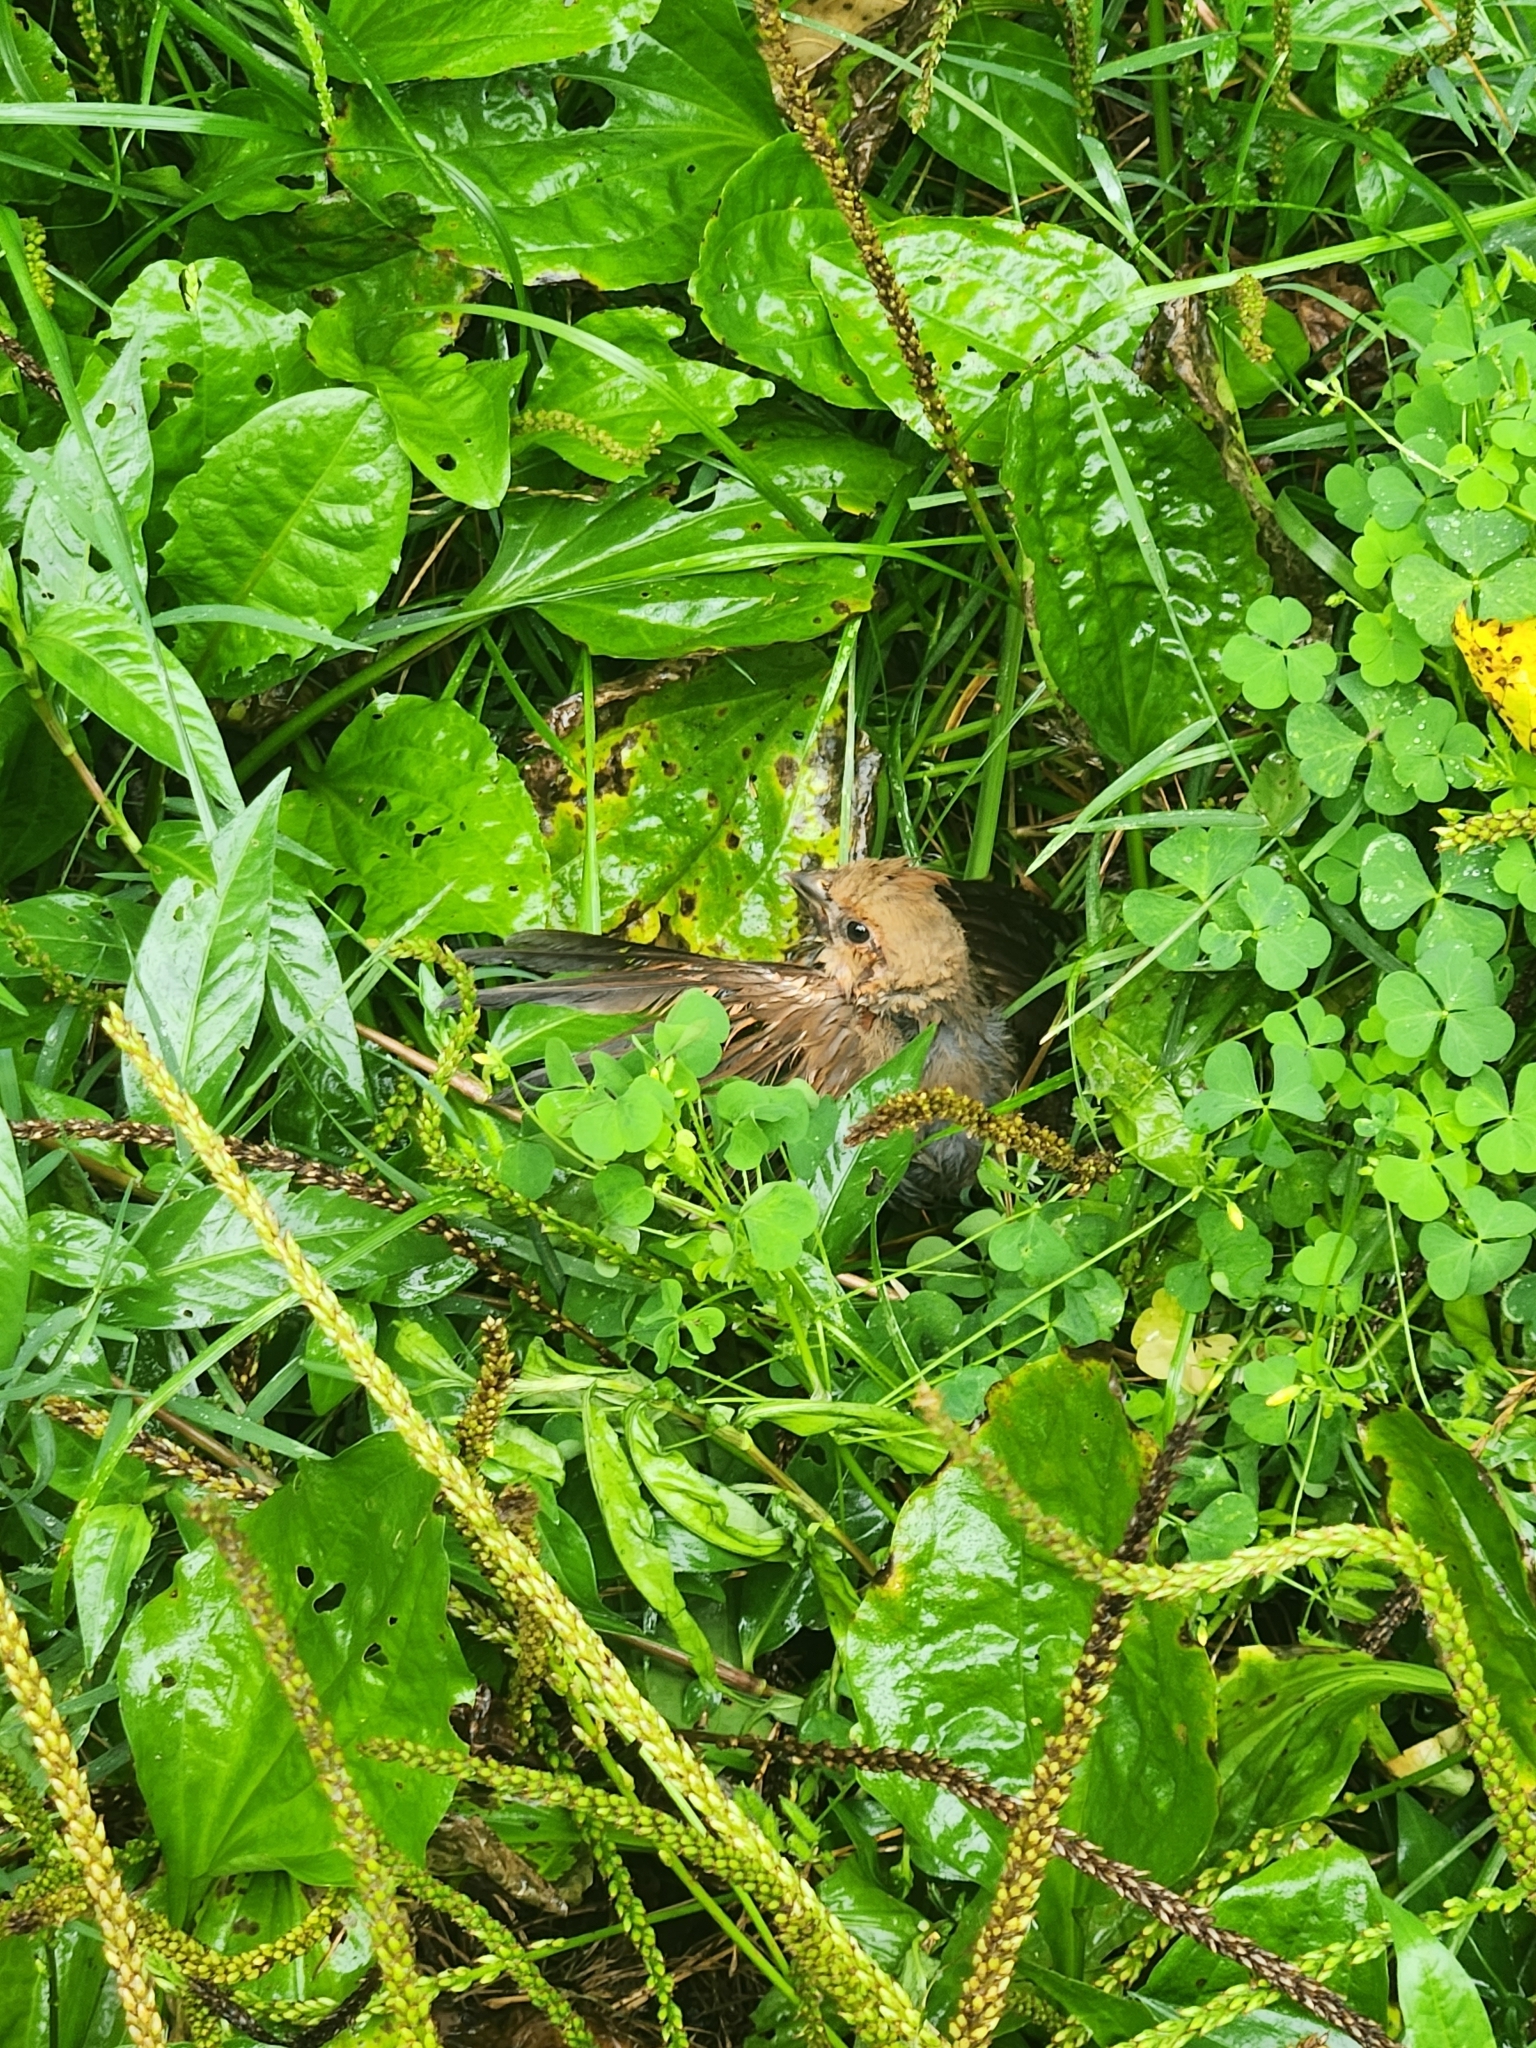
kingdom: Animalia
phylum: Chordata
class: Aves
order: Passeriformes
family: Cardinalidae
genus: Cardinalis
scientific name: Cardinalis cardinalis
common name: Northern cardinal
